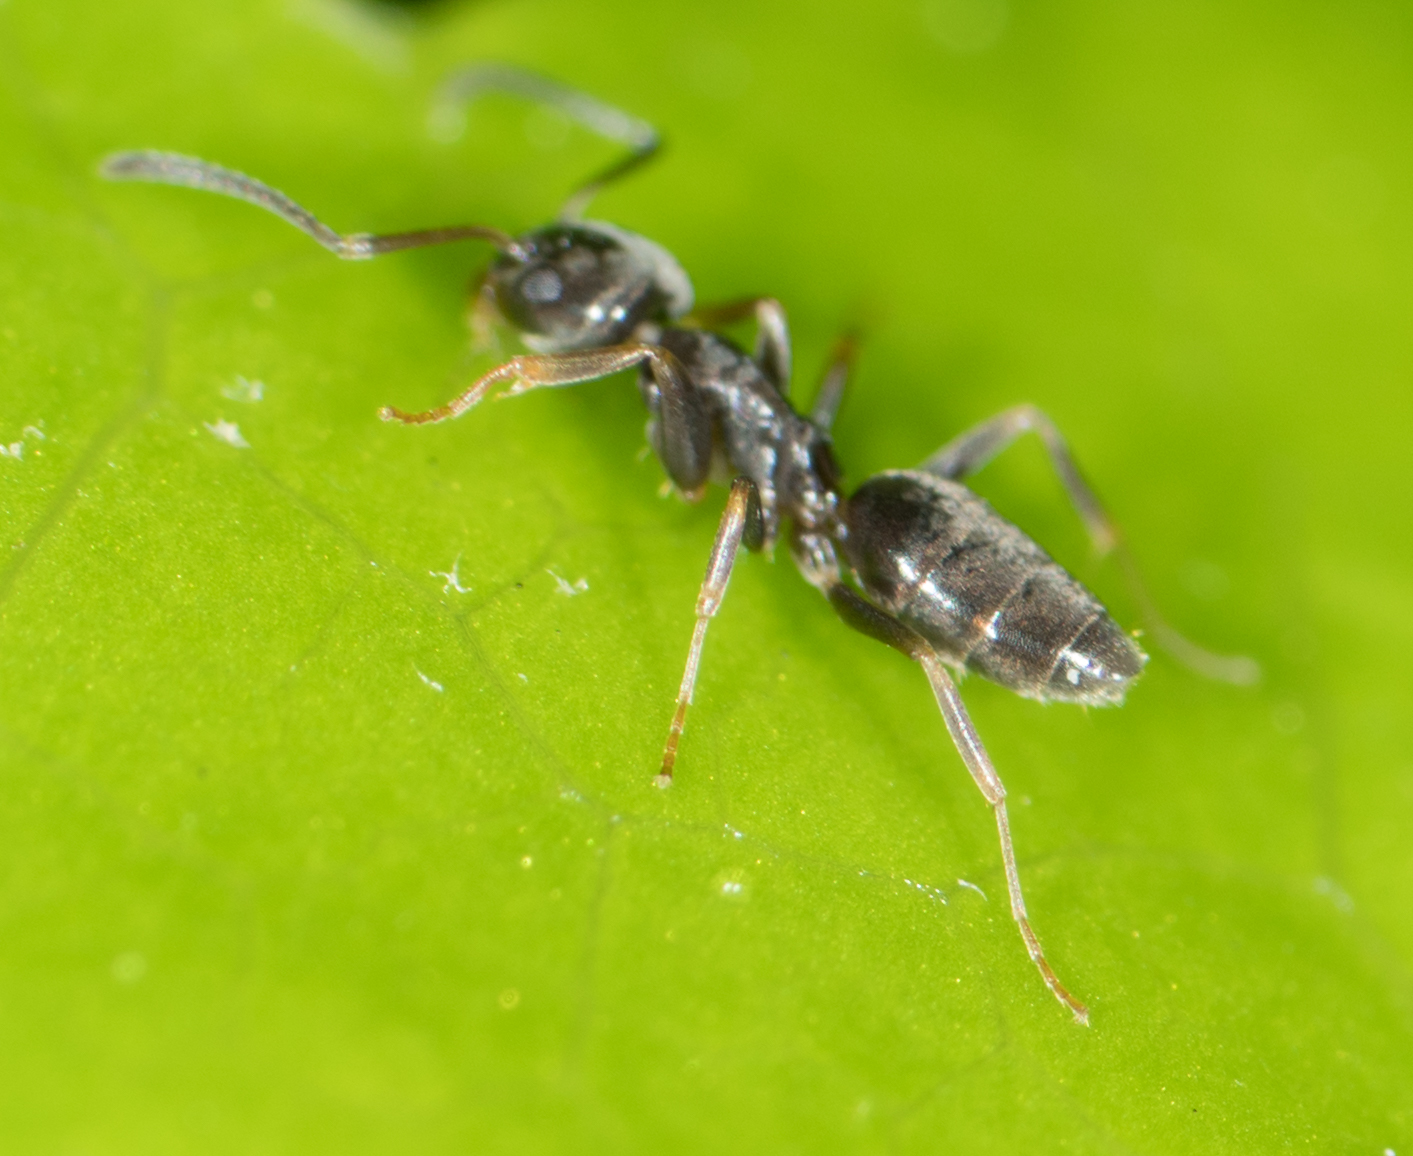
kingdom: Animalia
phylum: Arthropoda
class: Insecta
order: Hymenoptera
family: Formicidae
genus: Tapinoma
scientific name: Tapinoma sessile
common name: Odorous house ant
